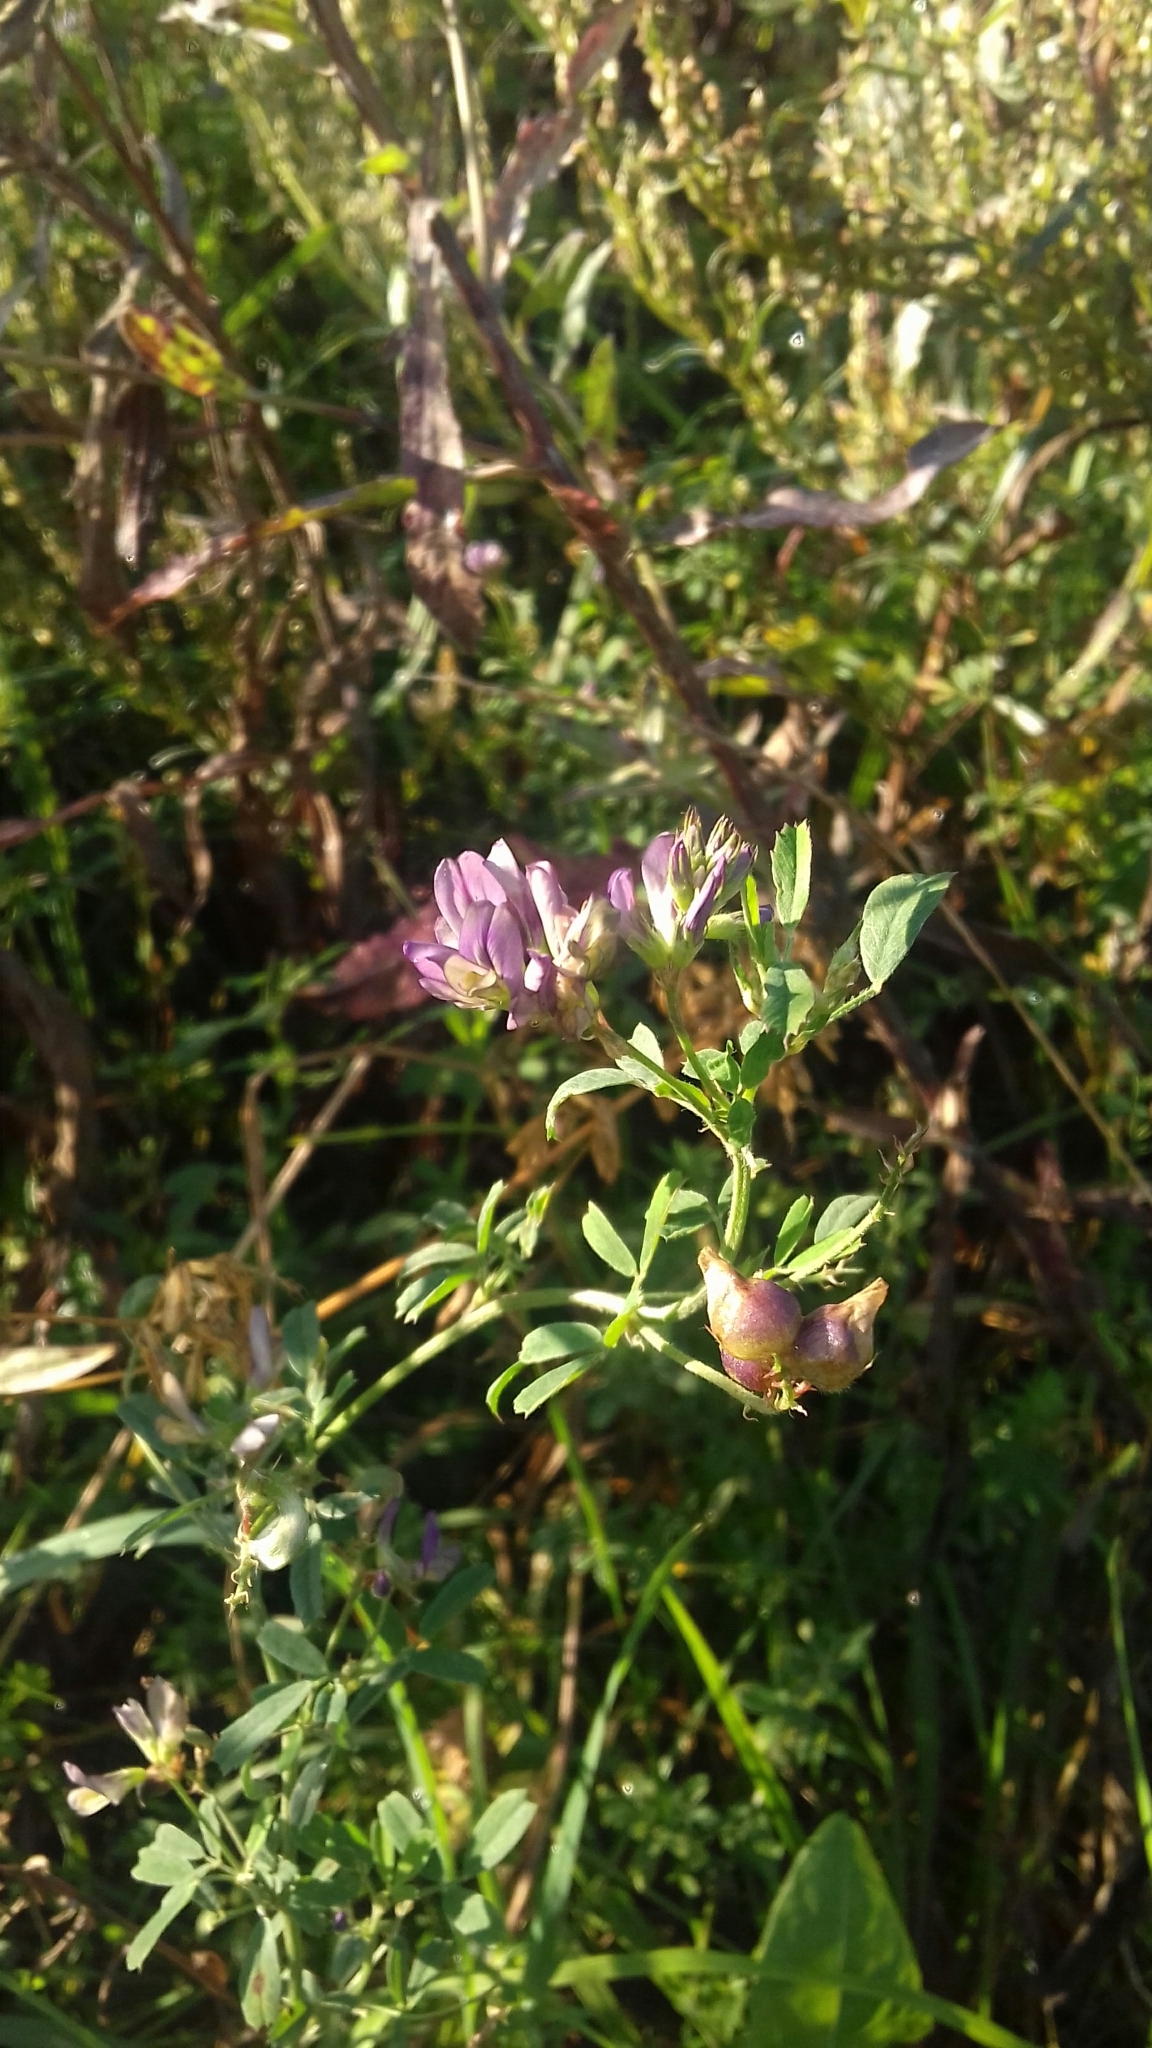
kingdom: Plantae
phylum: Tracheophyta
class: Magnoliopsida
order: Fabales
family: Fabaceae
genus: Medicago
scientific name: Medicago varia
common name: Sand lucerne
